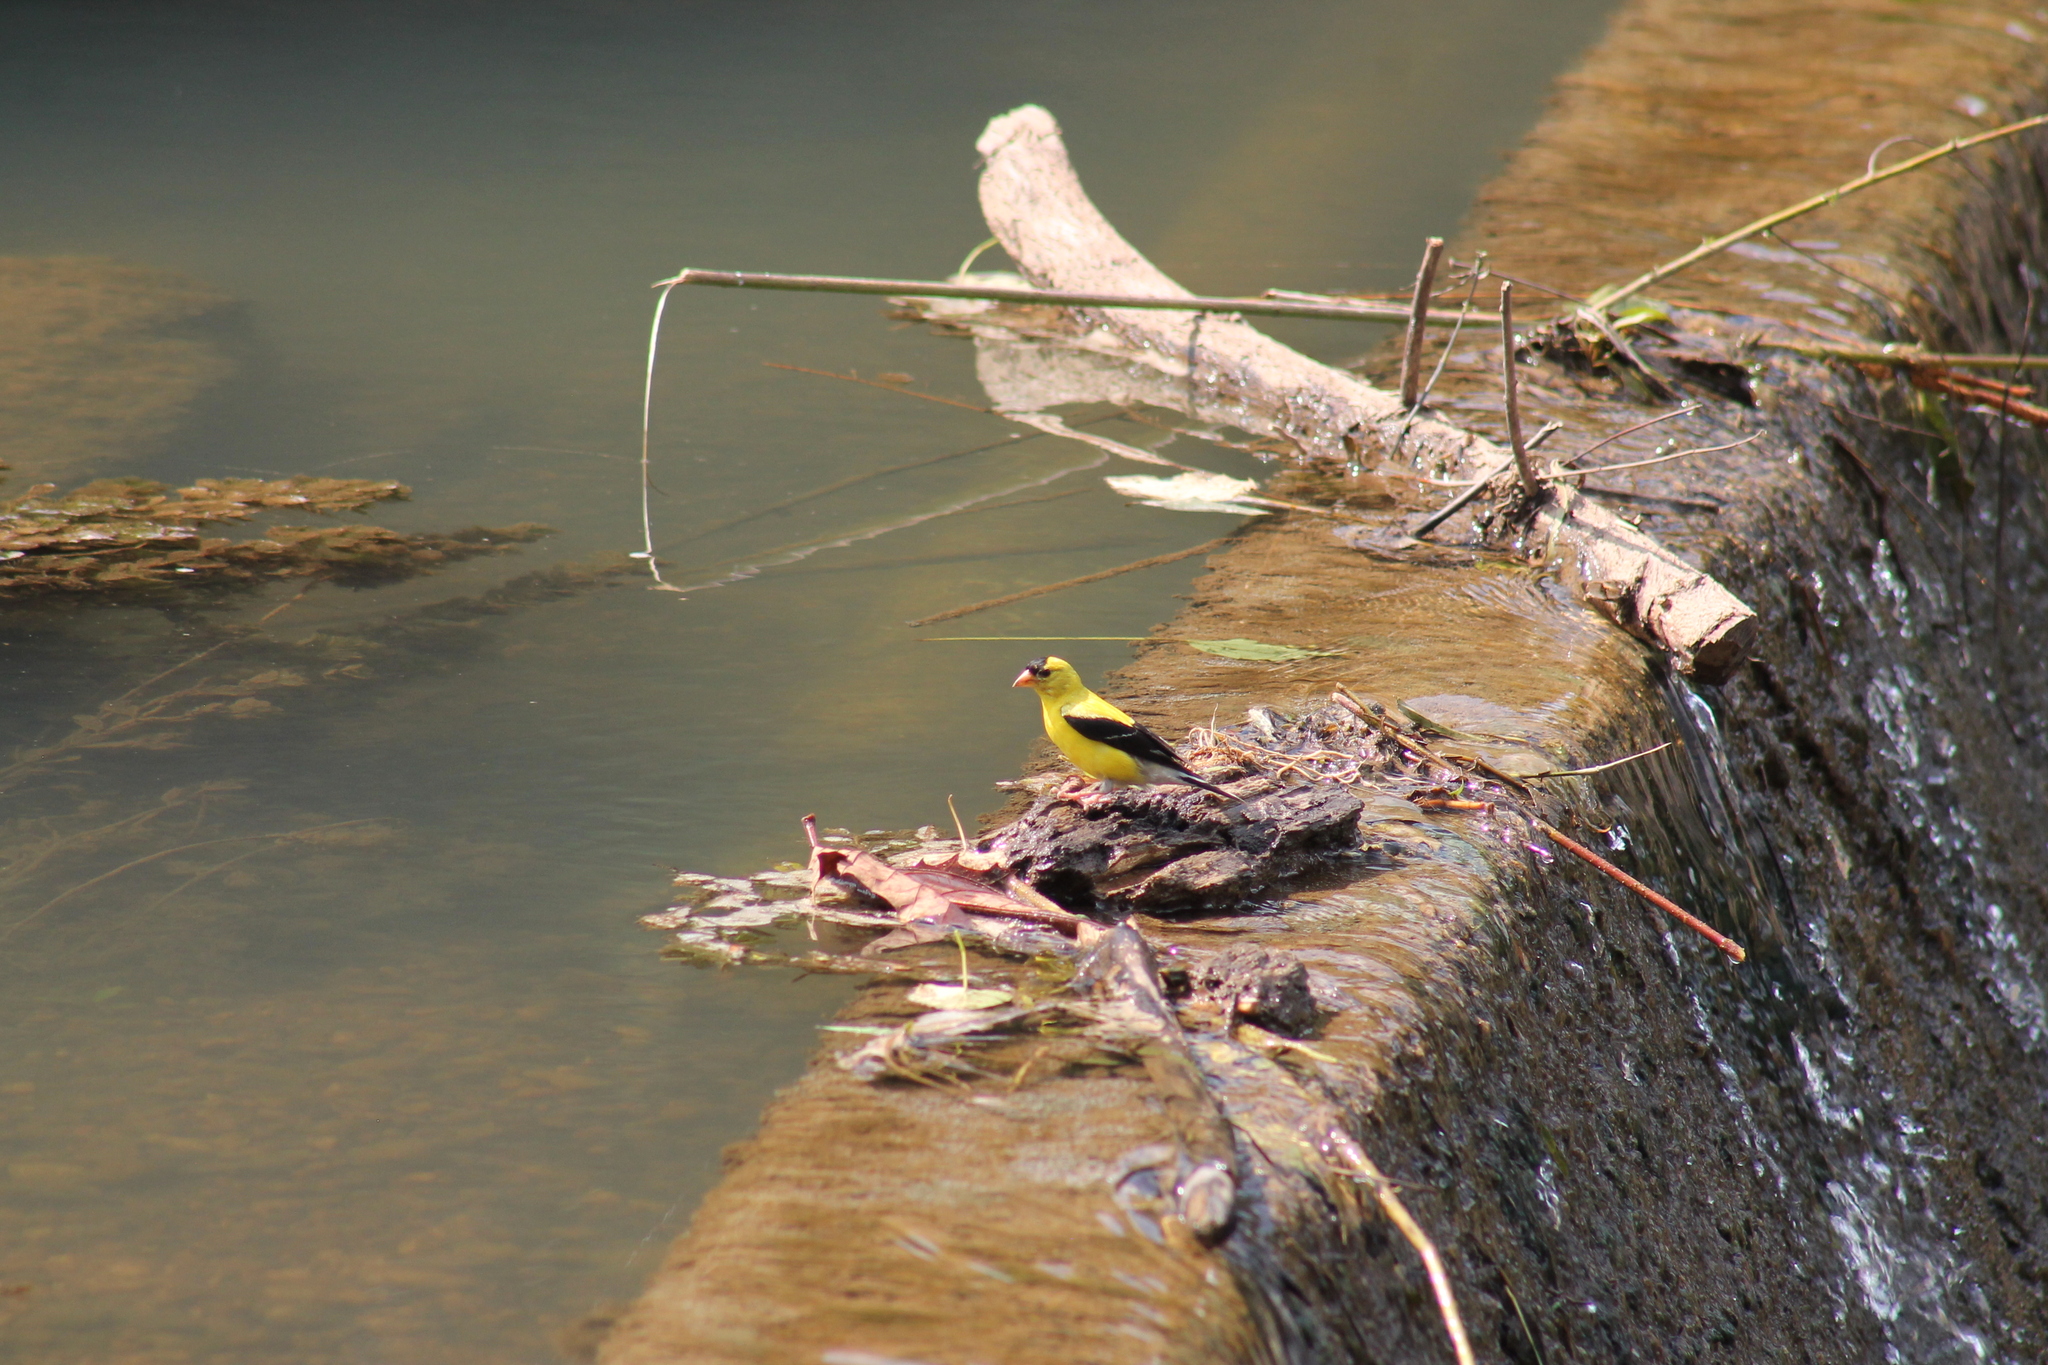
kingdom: Animalia
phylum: Chordata
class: Aves
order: Passeriformes
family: Fringillidae
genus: Spinus
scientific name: Spinus tristis
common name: American goldfinch
